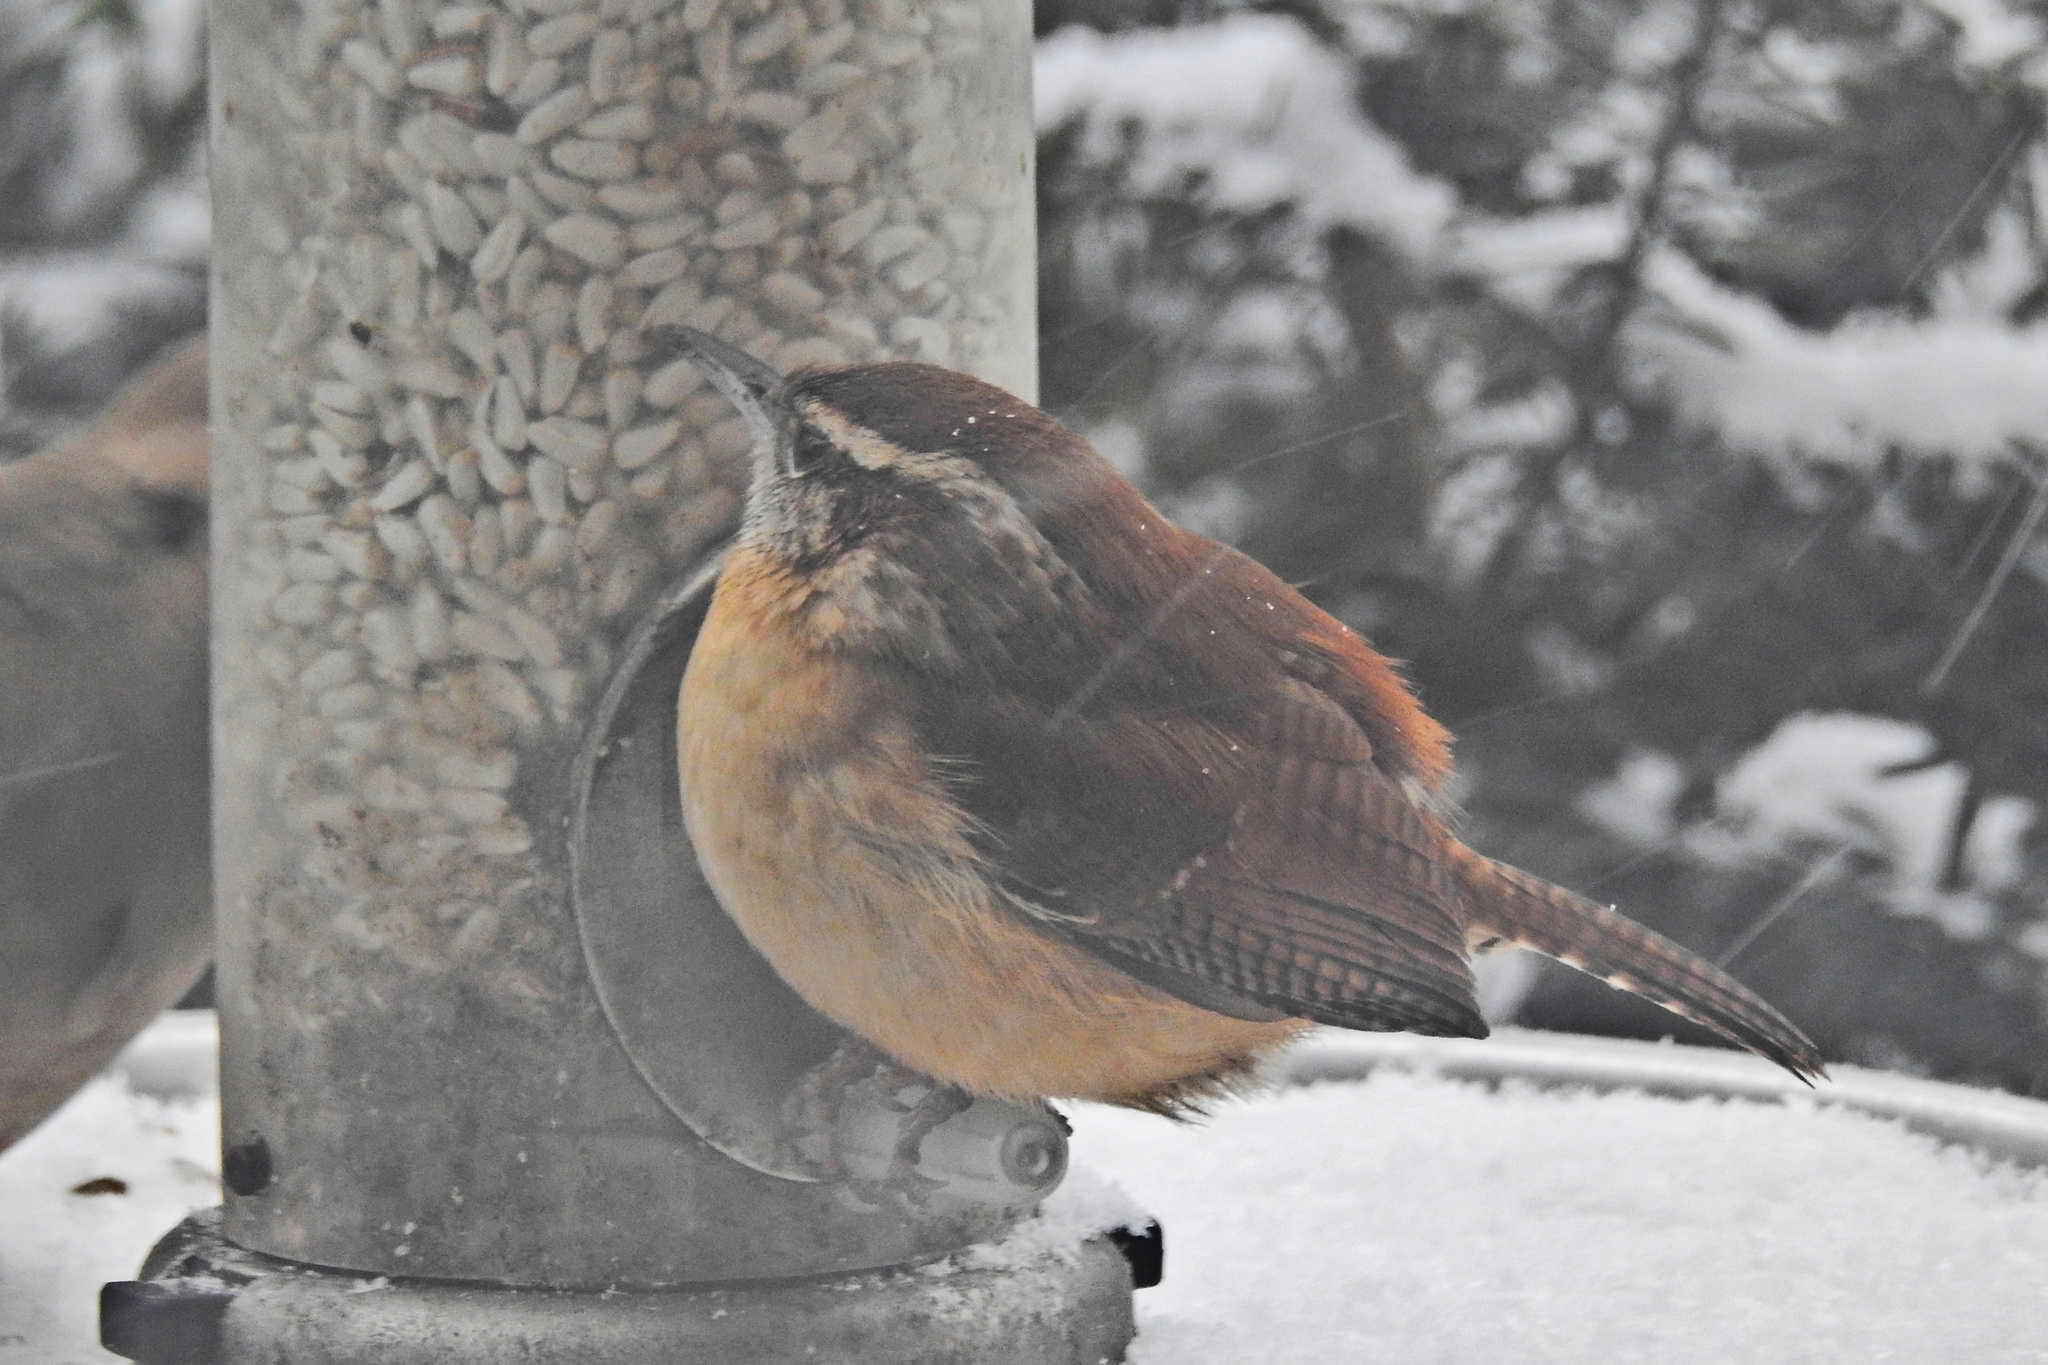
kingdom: Animalia
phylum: Chordata
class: Aves
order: Passeriformes
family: Troglodytidae
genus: Thryothorus
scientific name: Thryothorus ludovicianus
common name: Carolina wren
